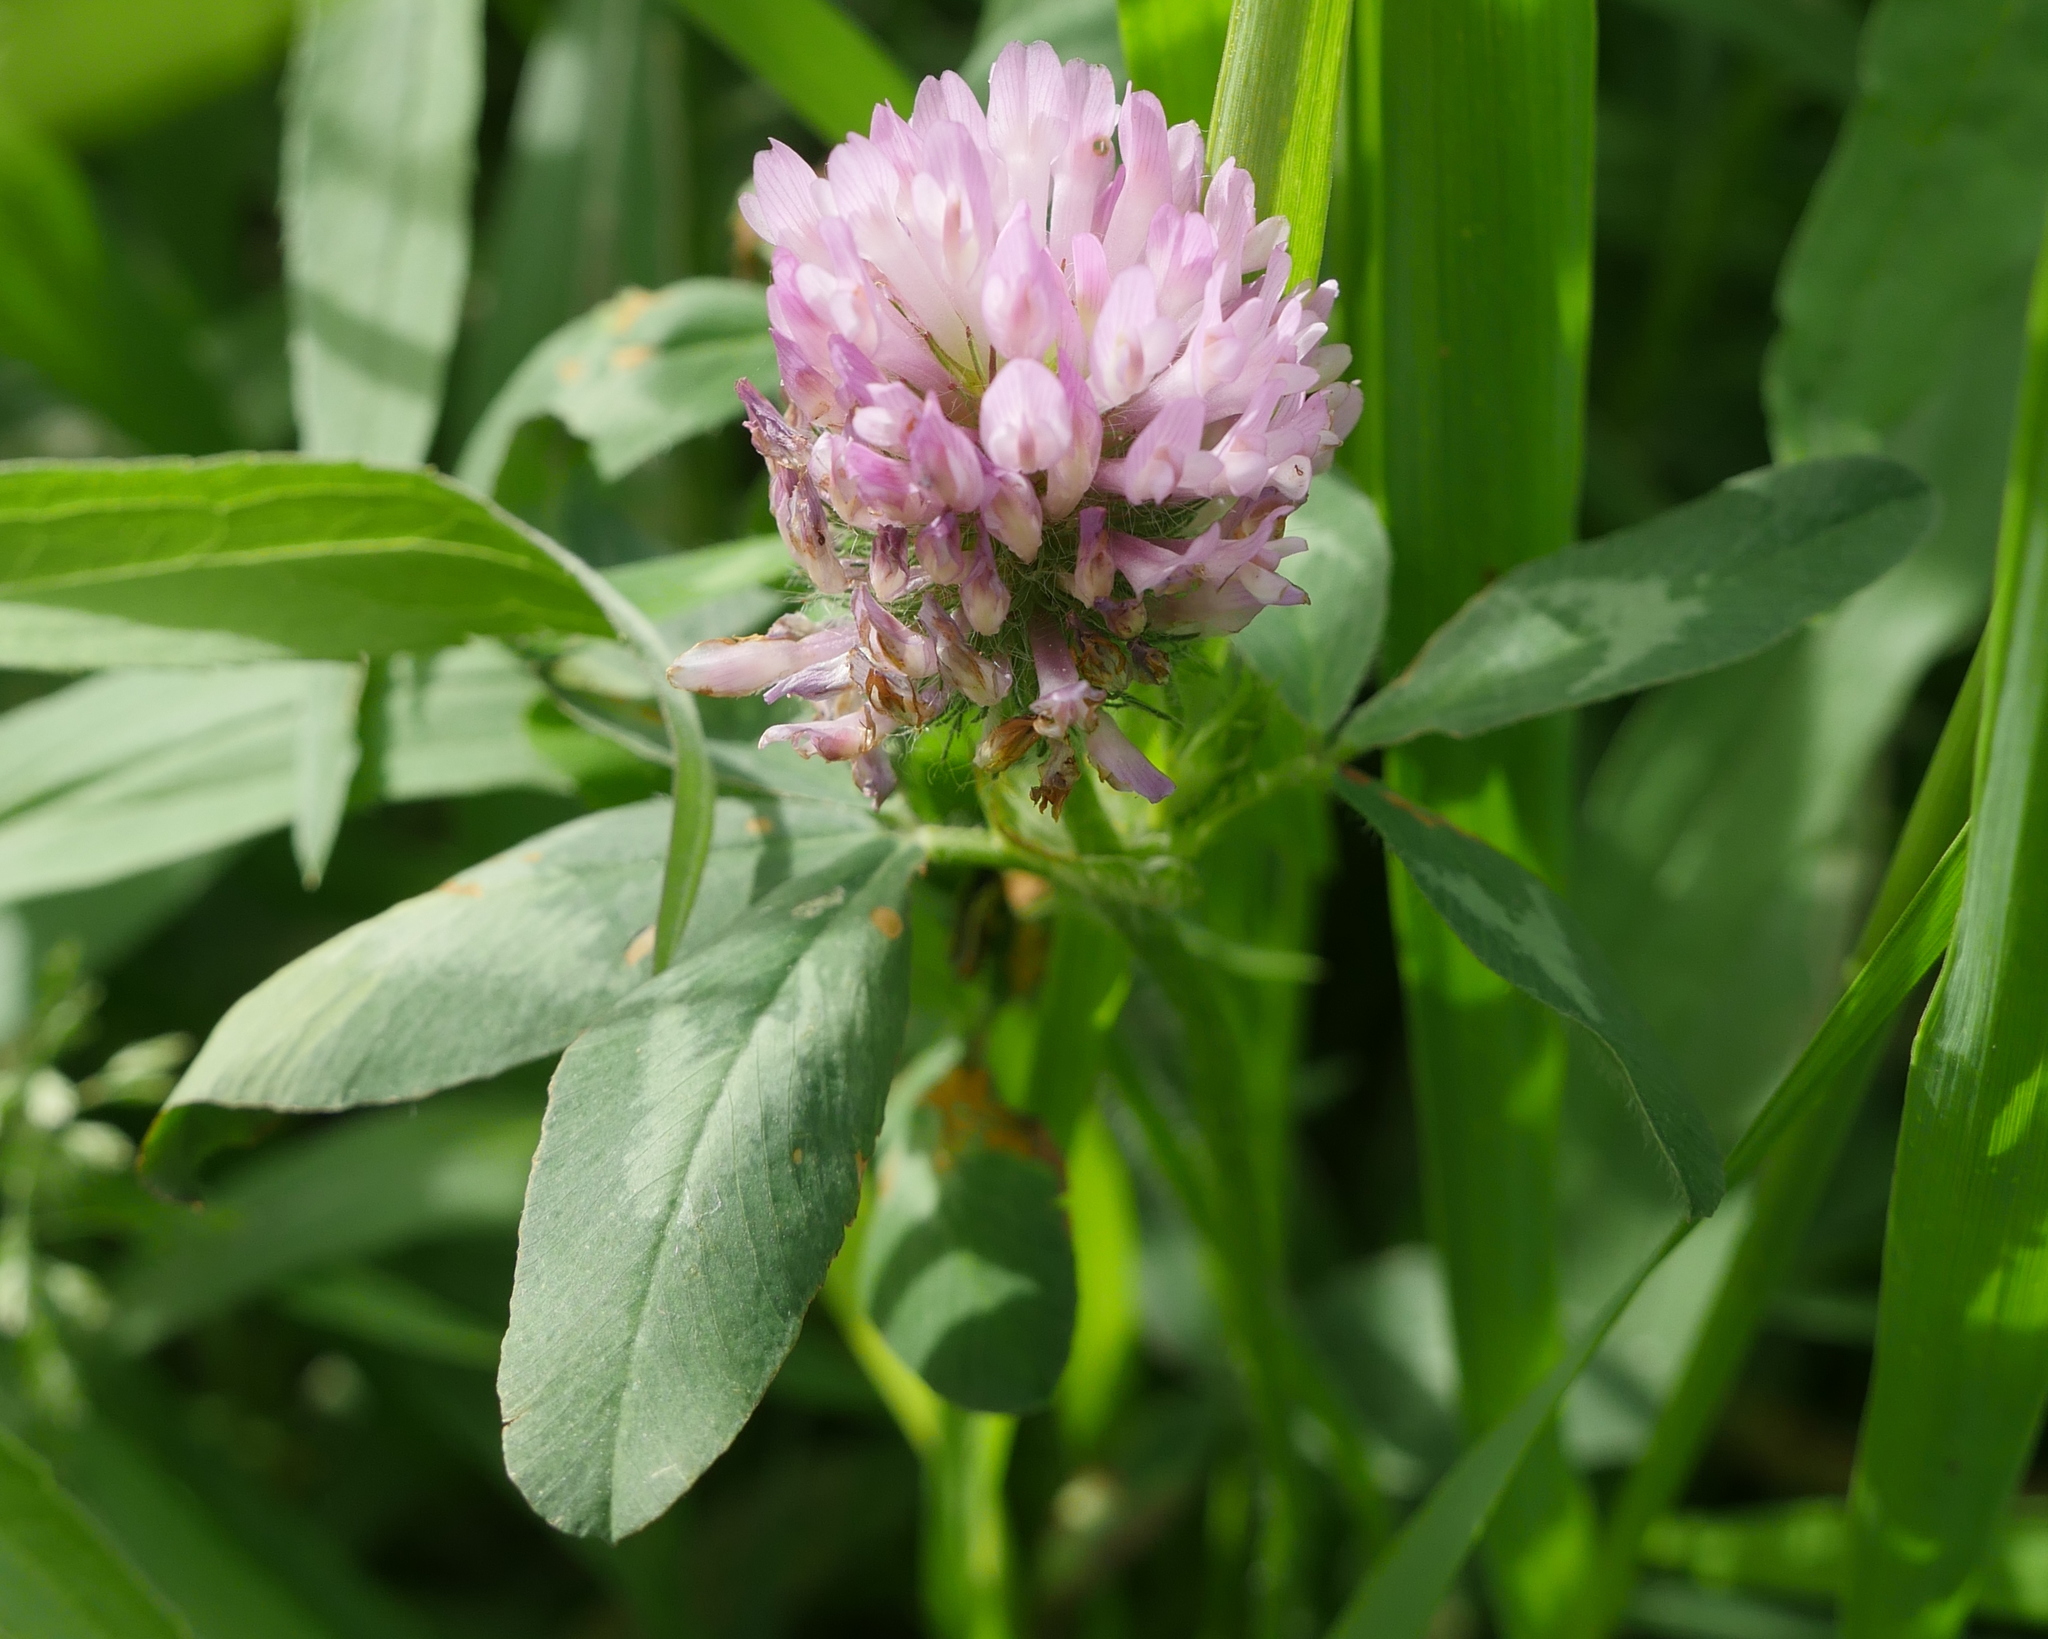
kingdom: Plantae
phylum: Tracheophyta
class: Magnoliopsida
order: Fabales
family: Fabaceae
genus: Trifolium
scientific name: Trifolium pratense
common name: Red clover
